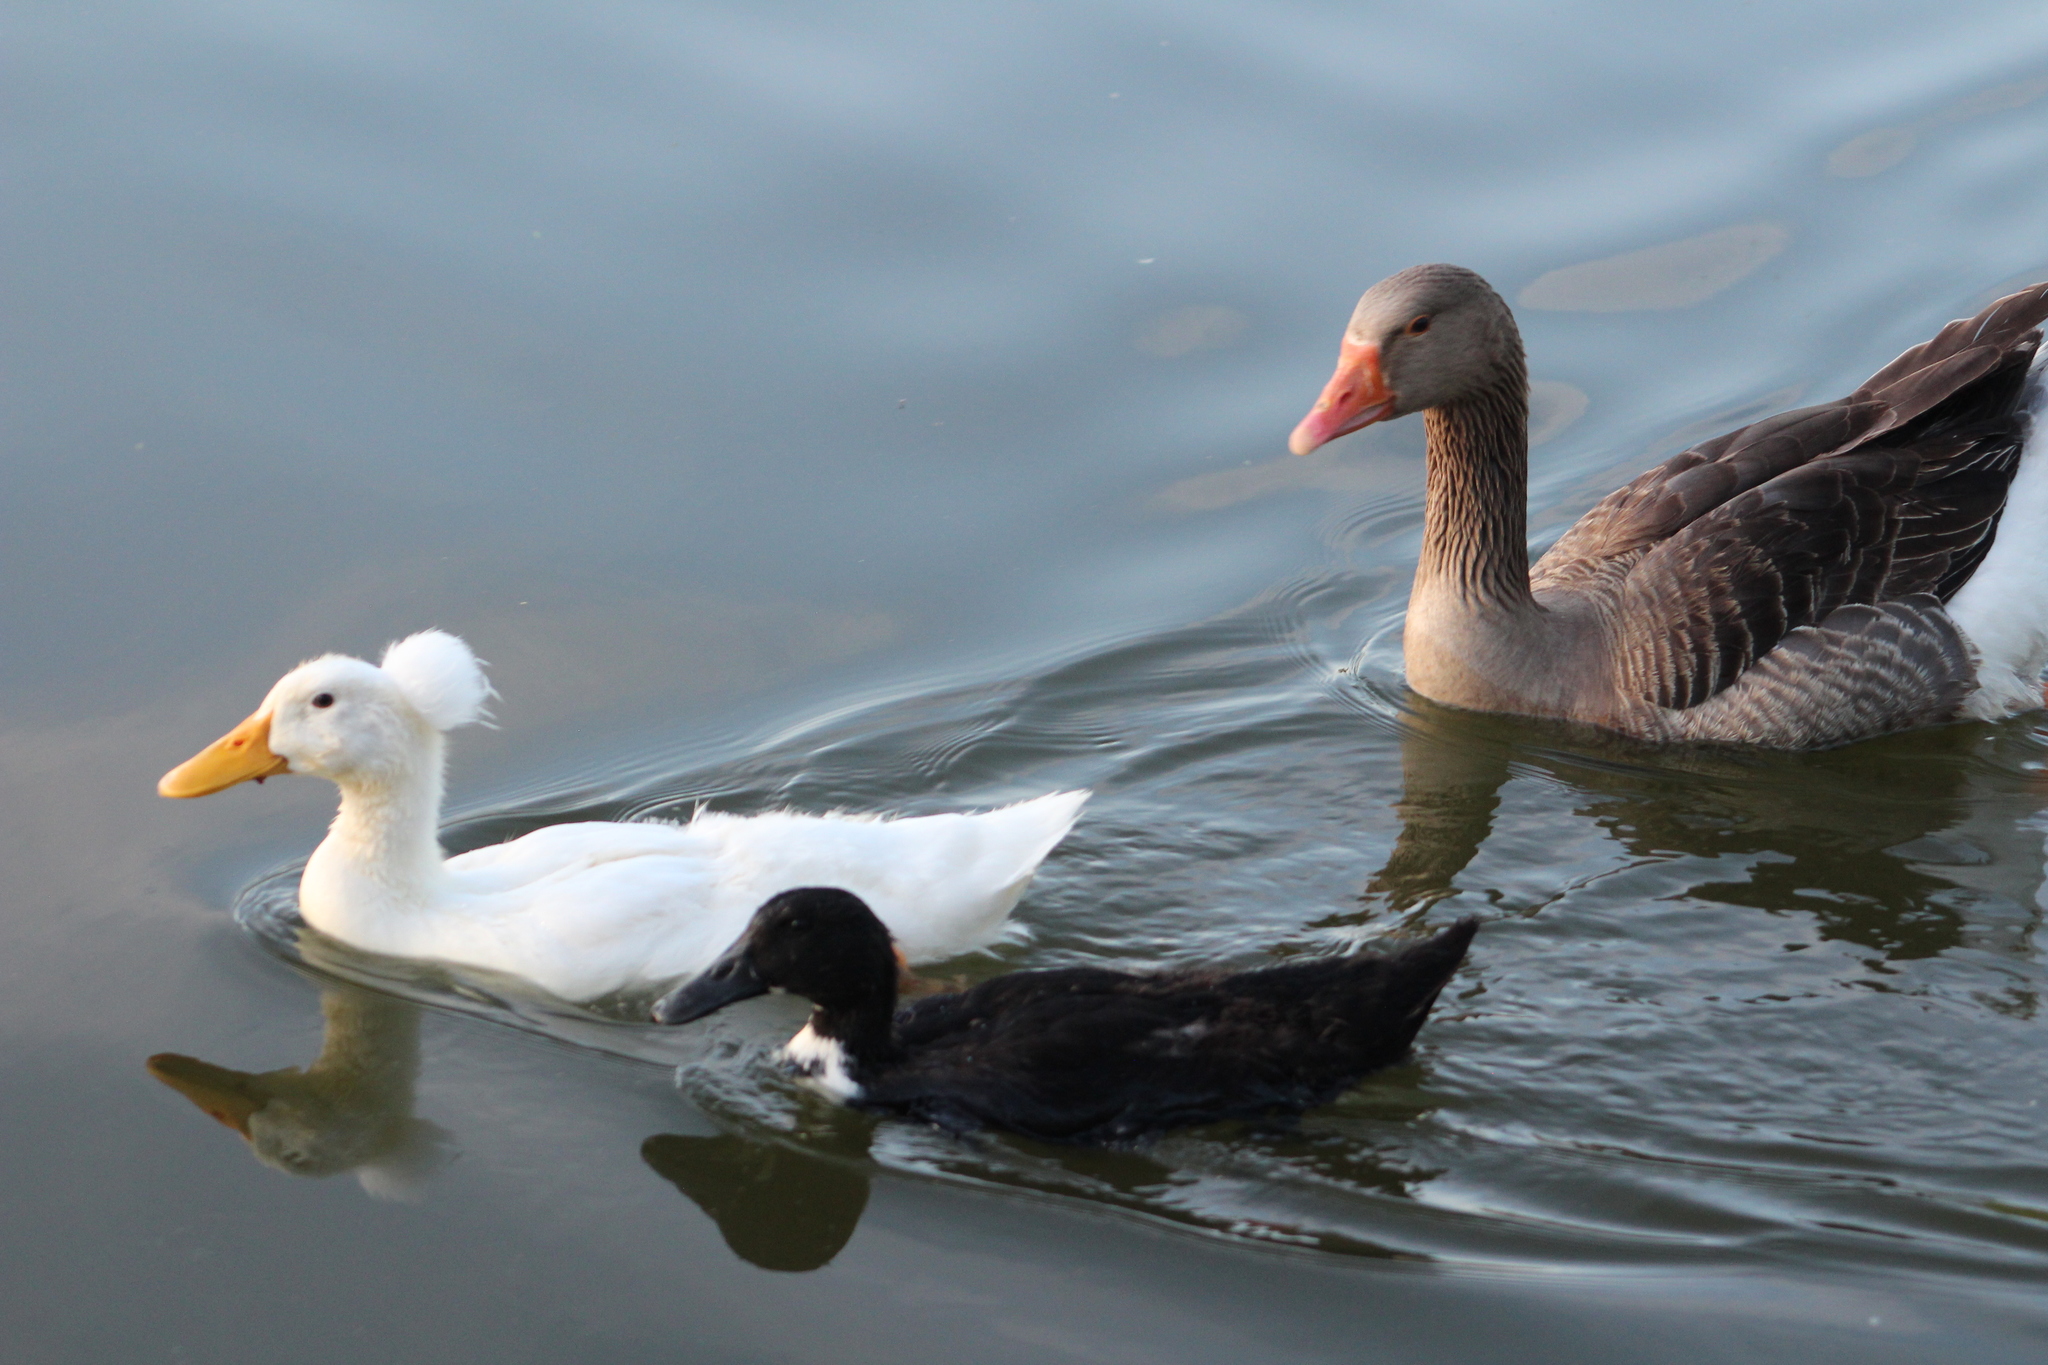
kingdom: Animalia
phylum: Chordata
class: Aves
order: Anseriformes
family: Anatidae
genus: Anser
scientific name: Anser anser
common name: Greylag goose
